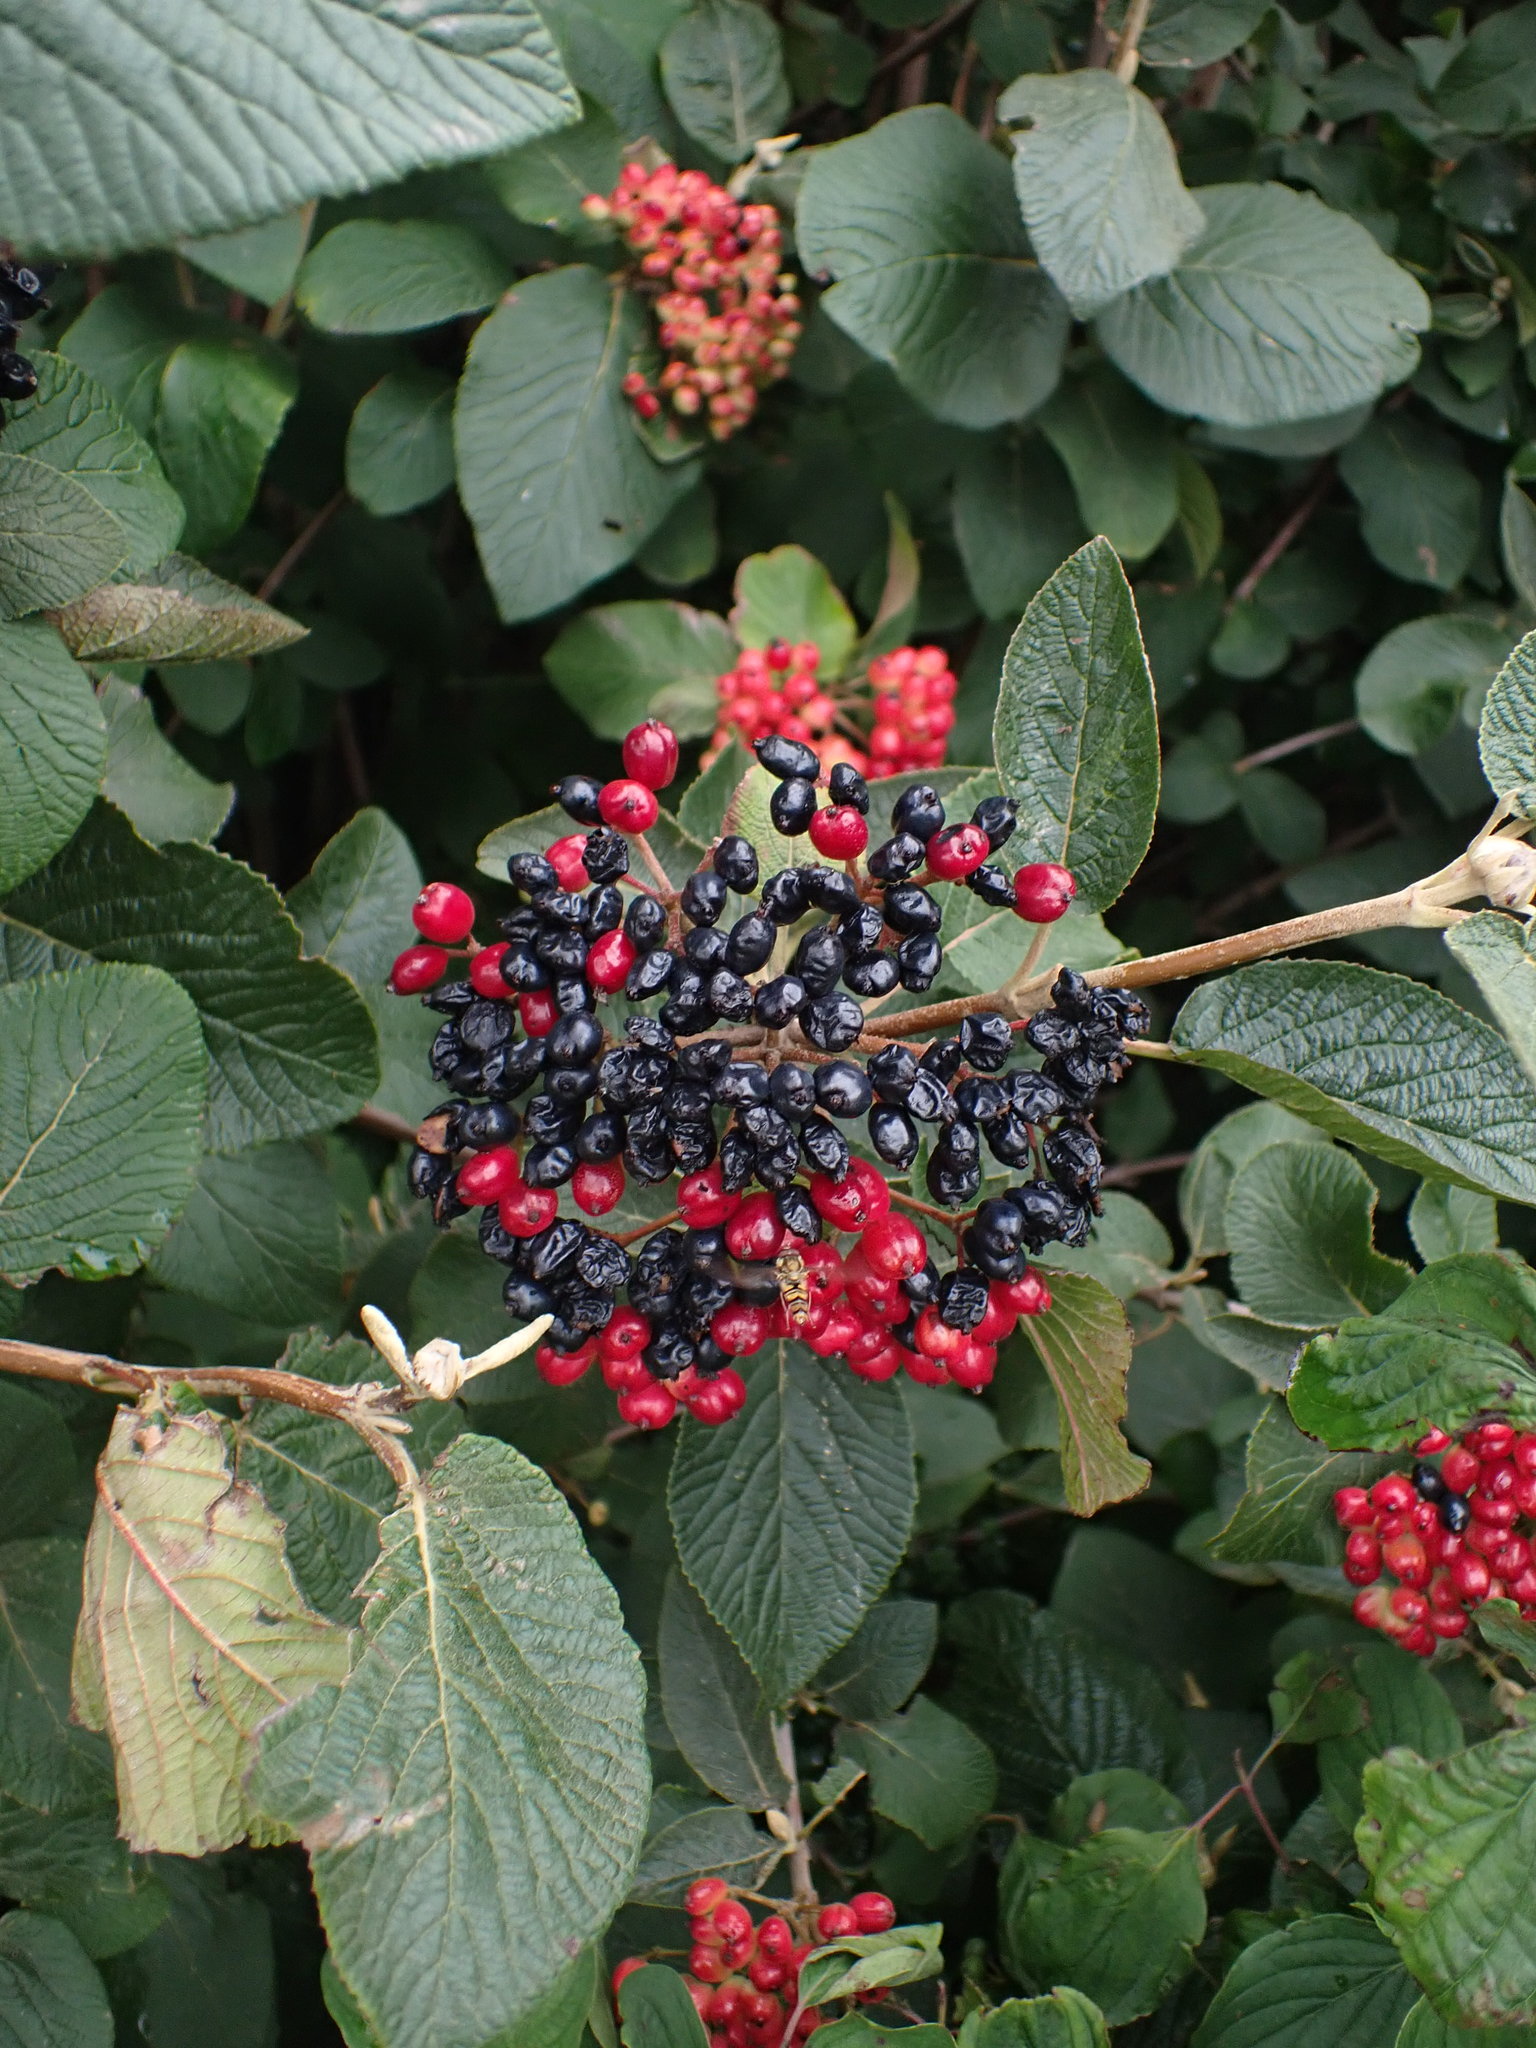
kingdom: Plantae
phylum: Tracheophyta
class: Magnoliopsida
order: Dipsacales
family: Viburnaceae
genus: Viburnum
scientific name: Viburnum lantana
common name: Wayfaring tree
